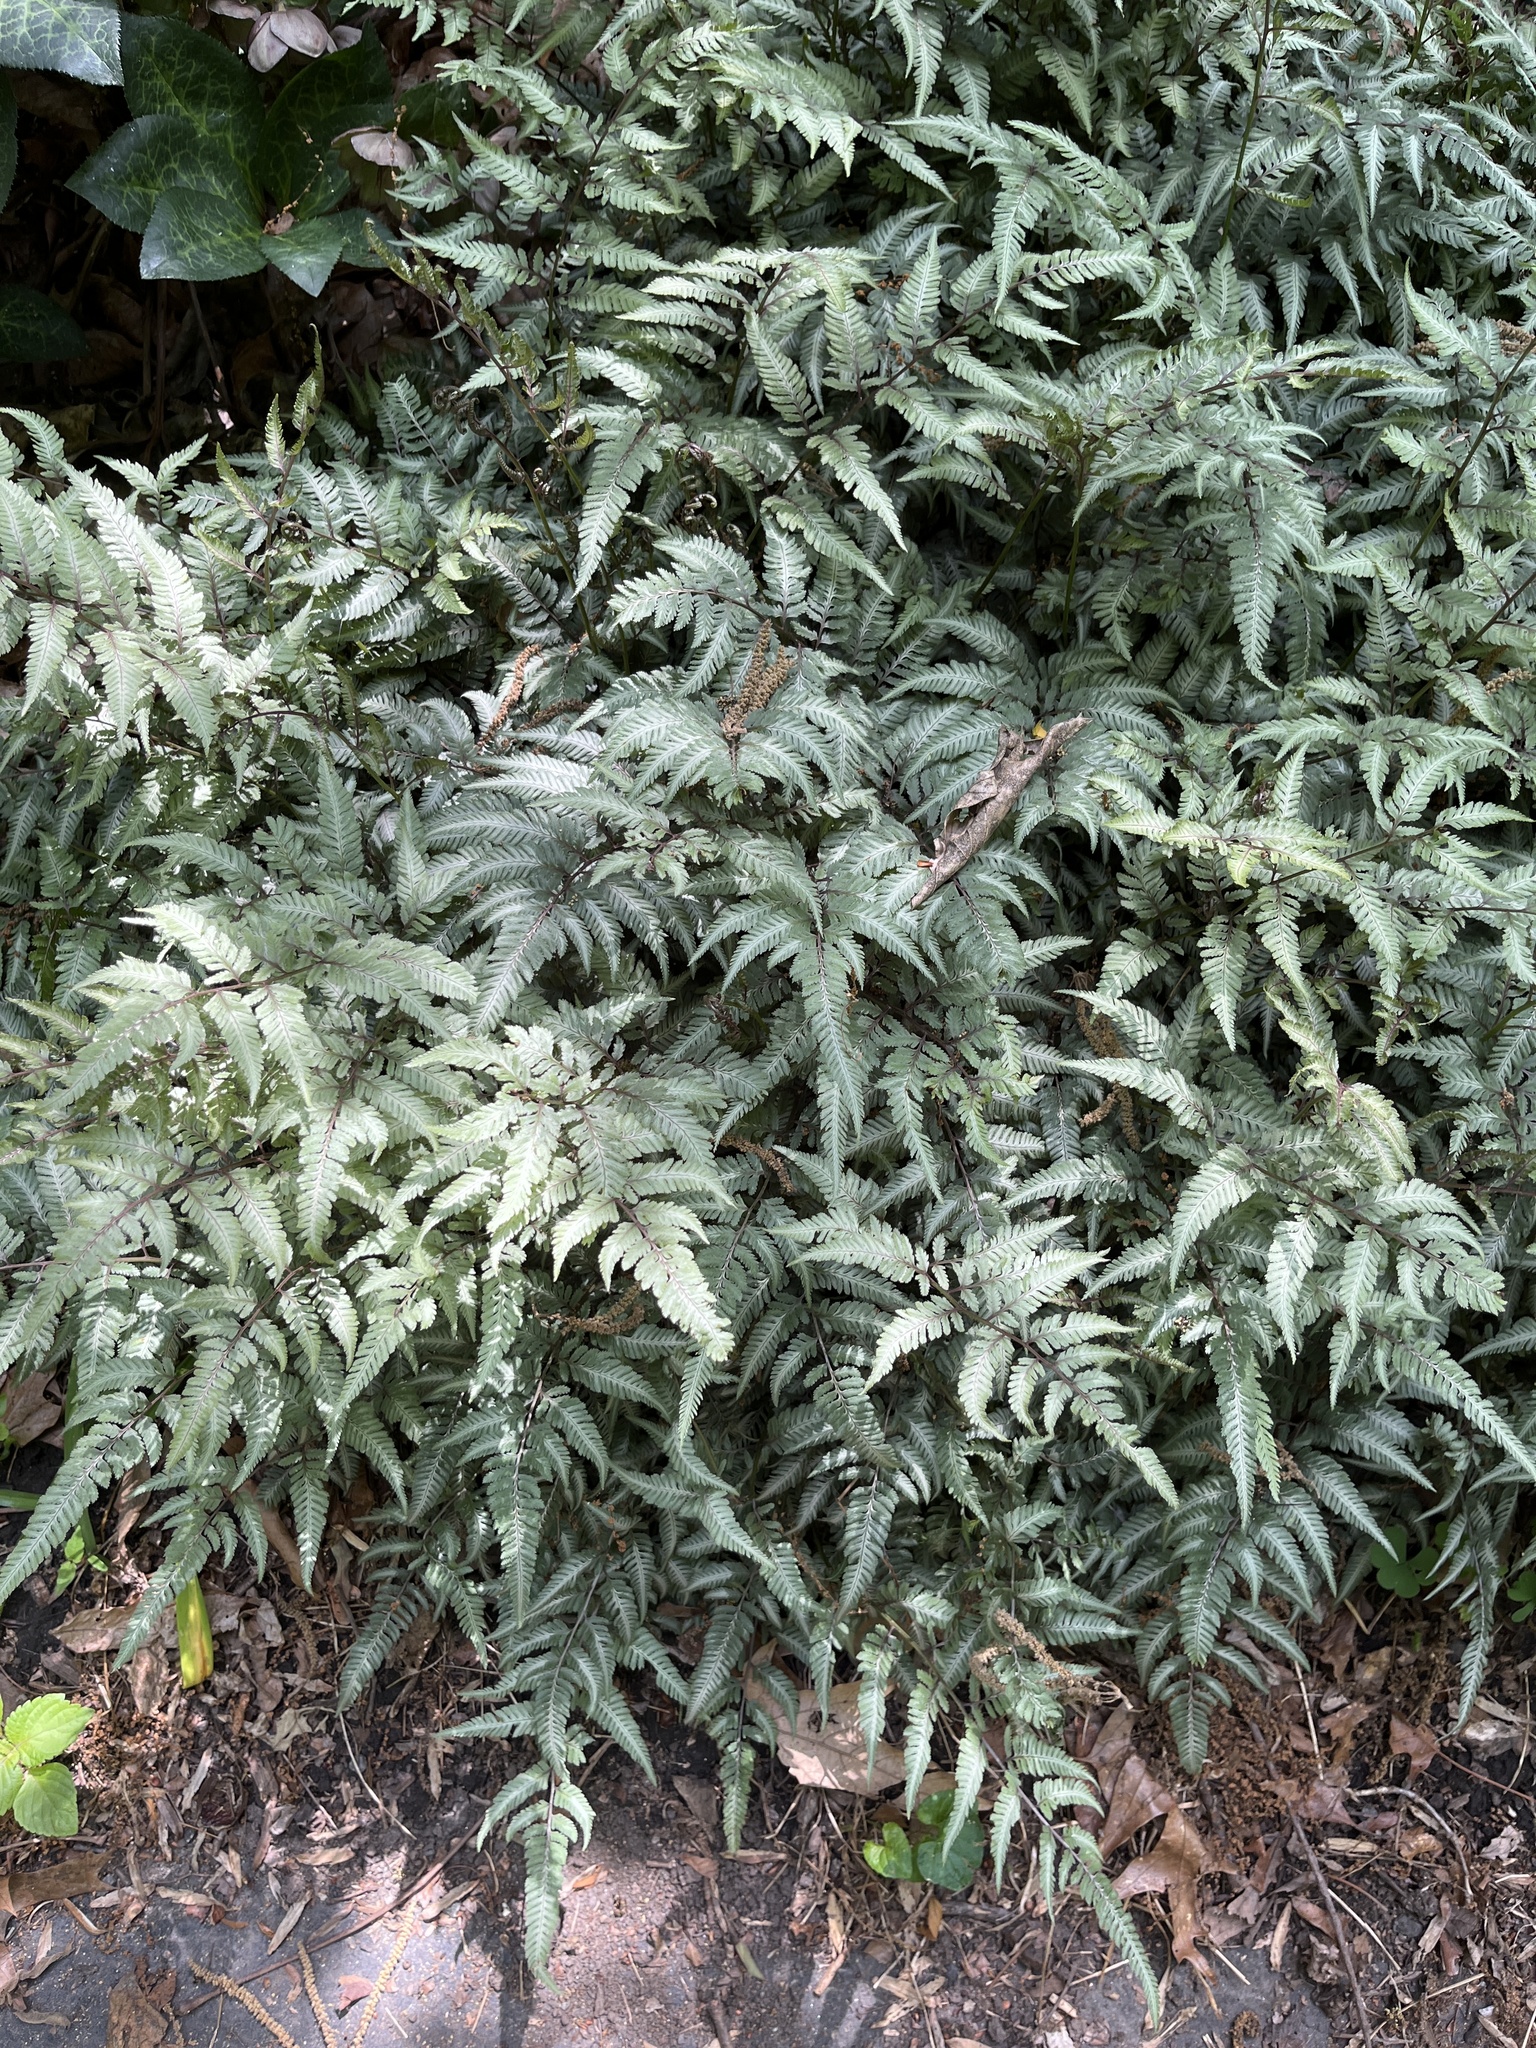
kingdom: Plantae
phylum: Tracheophyta
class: Polypodiopsida
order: Polypodiales
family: Athyriaceae
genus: Anisocampium
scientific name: Anisocampium niponicum
